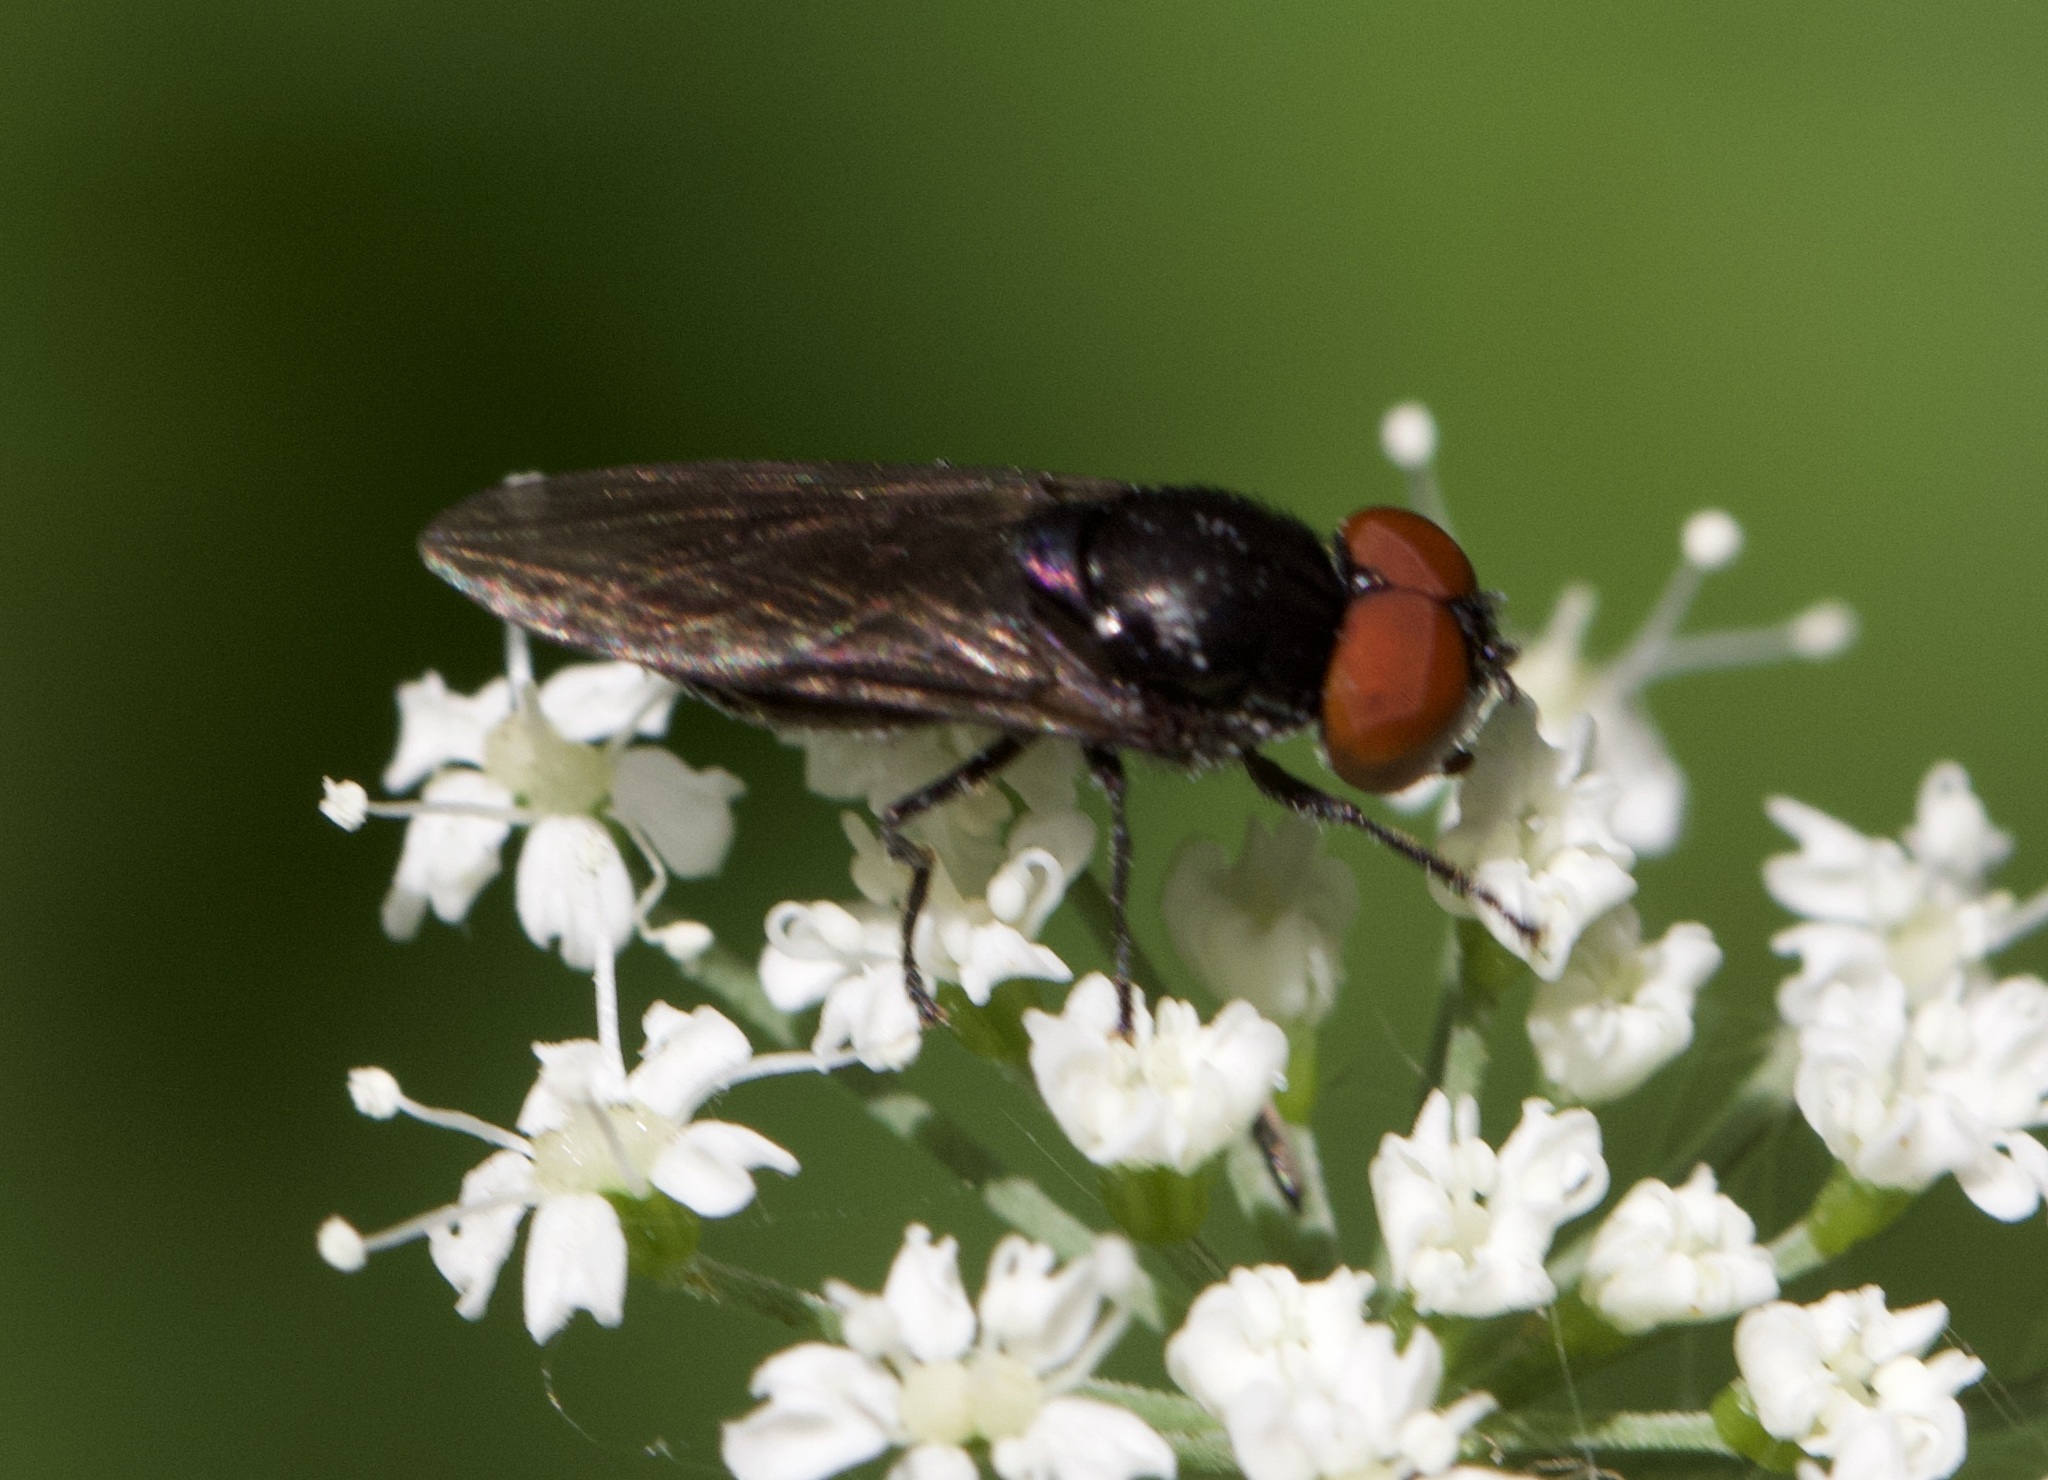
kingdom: Animalia
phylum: Arthropoda
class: Insecta
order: Diptera
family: Syrphidae
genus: Chrysogaster
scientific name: Chrysogaster solstitialis
